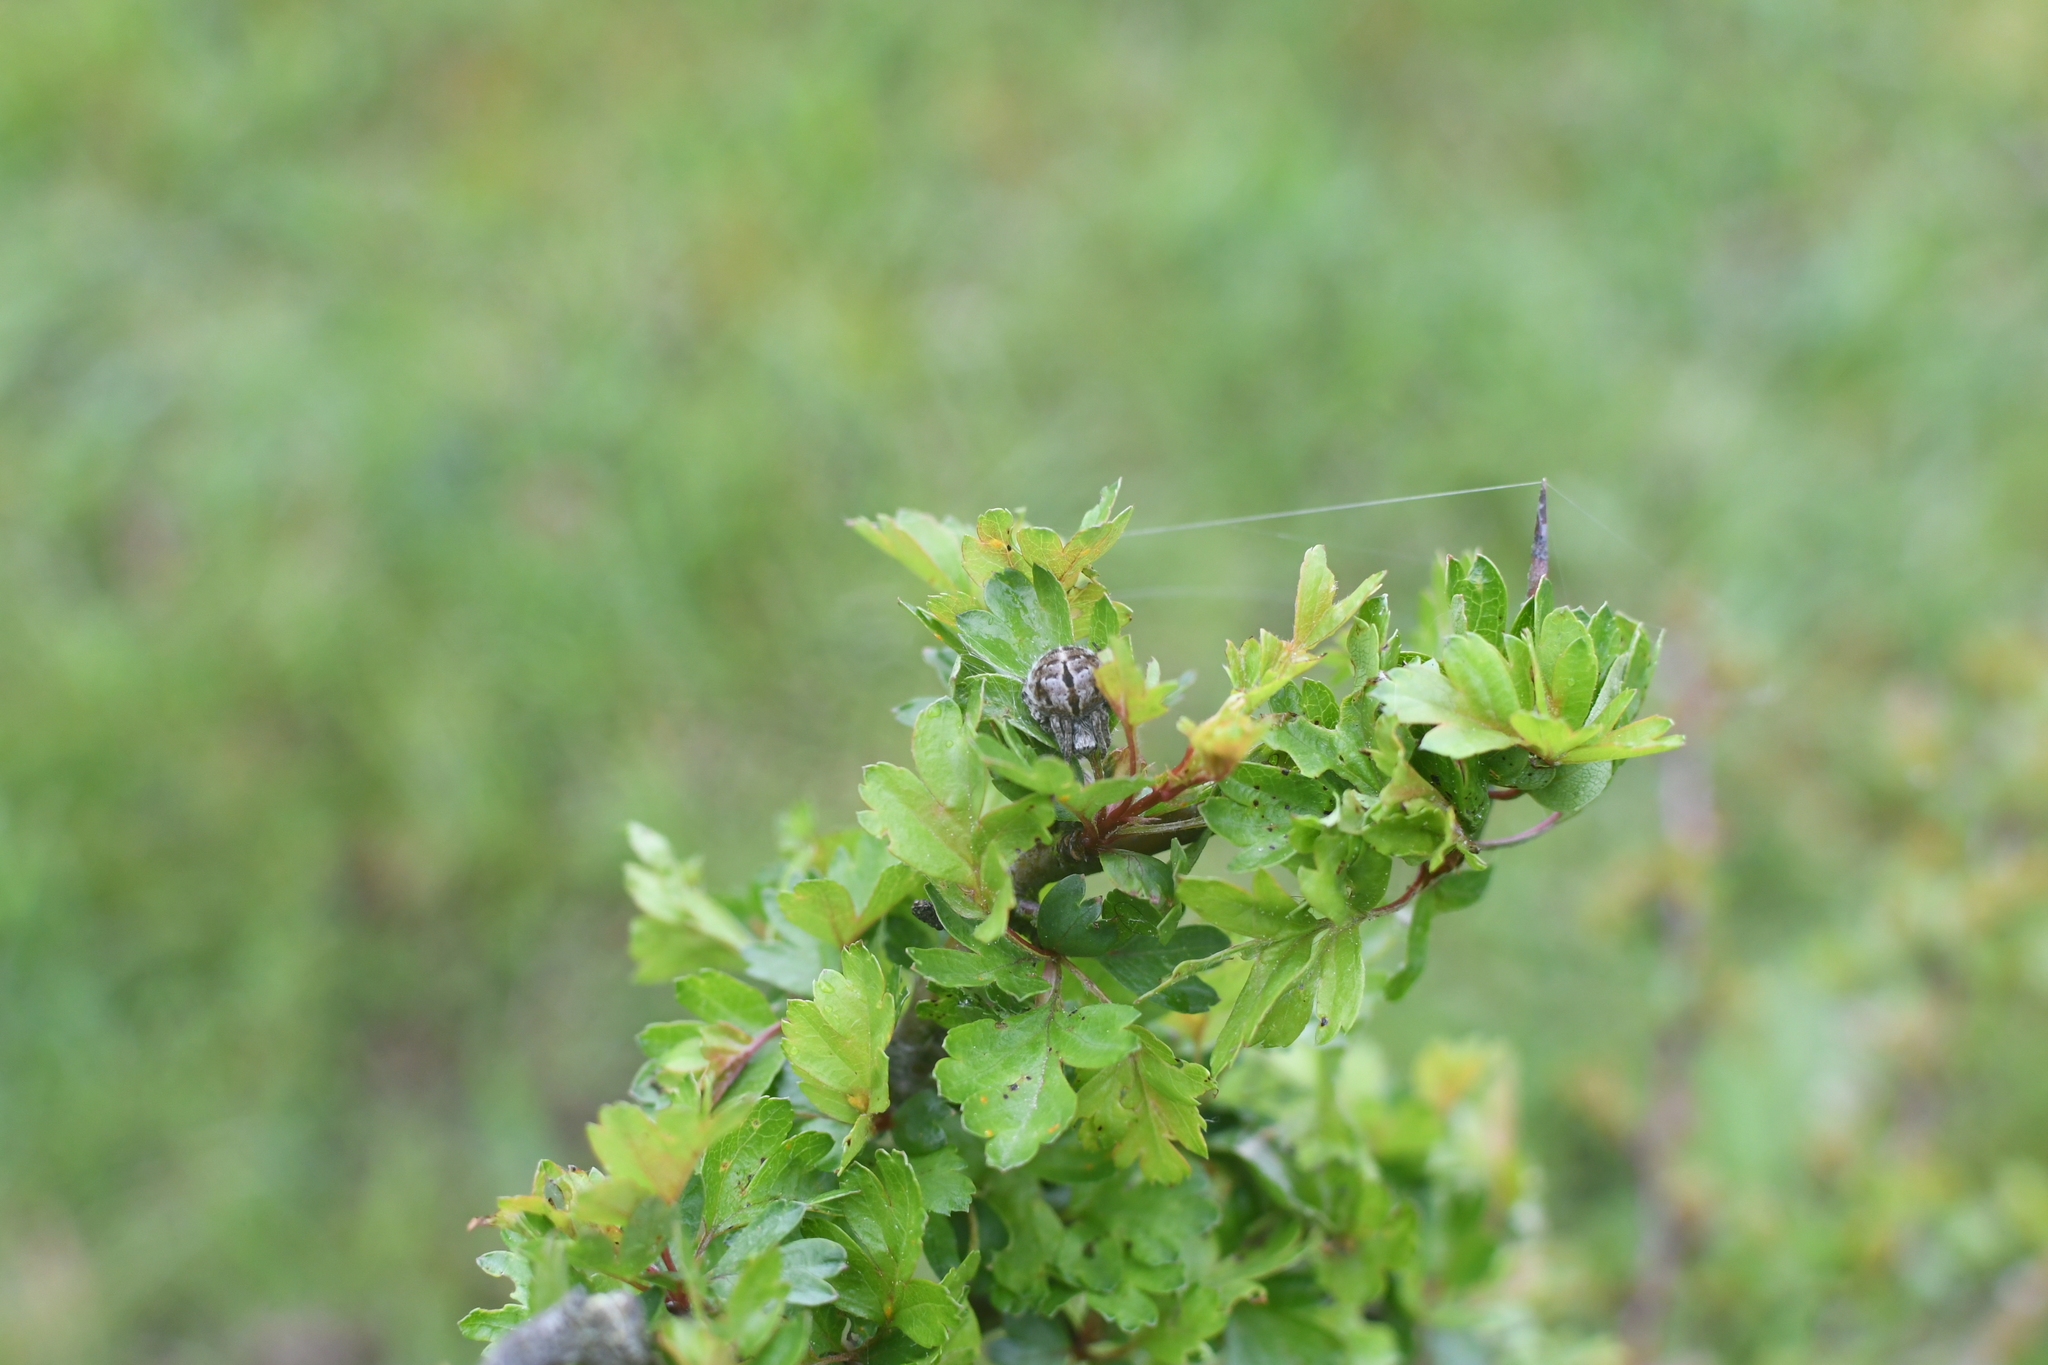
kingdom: Animalia
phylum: Arthropoda
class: Arachnida
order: Araneae
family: Araneidae
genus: Agalenatea
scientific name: Agalenatea redii
